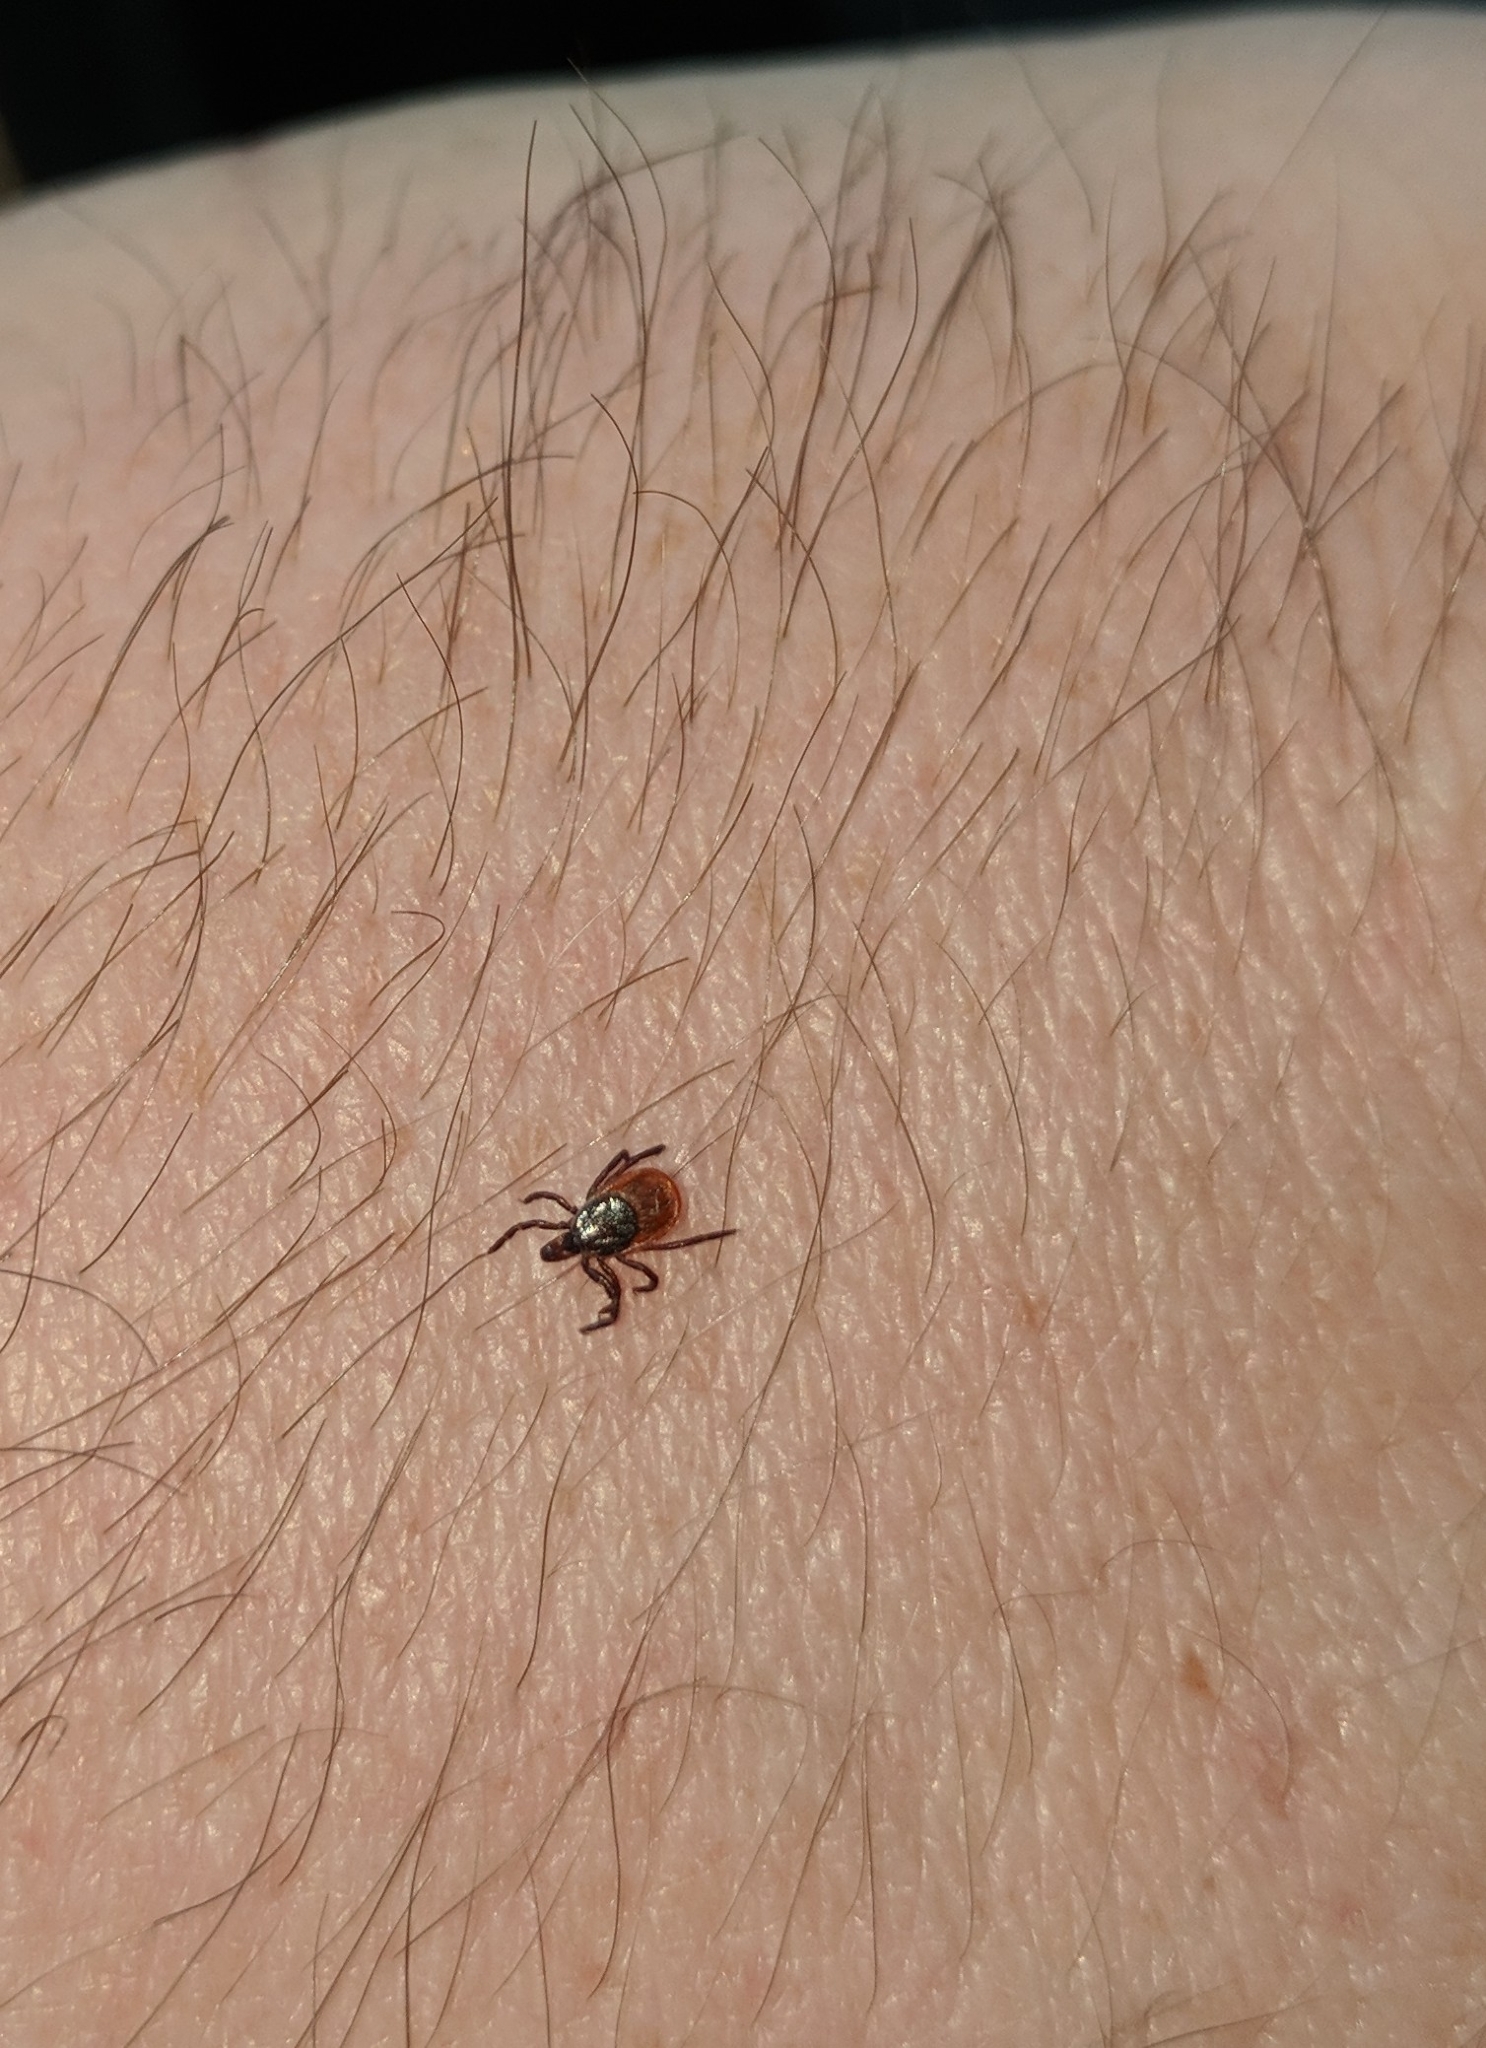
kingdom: Animalia
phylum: Arthropoda
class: Arachnida
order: Ixodida
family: Ixodidae
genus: Ixodes
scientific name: Ixodes scapularis
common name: Black legged tick
